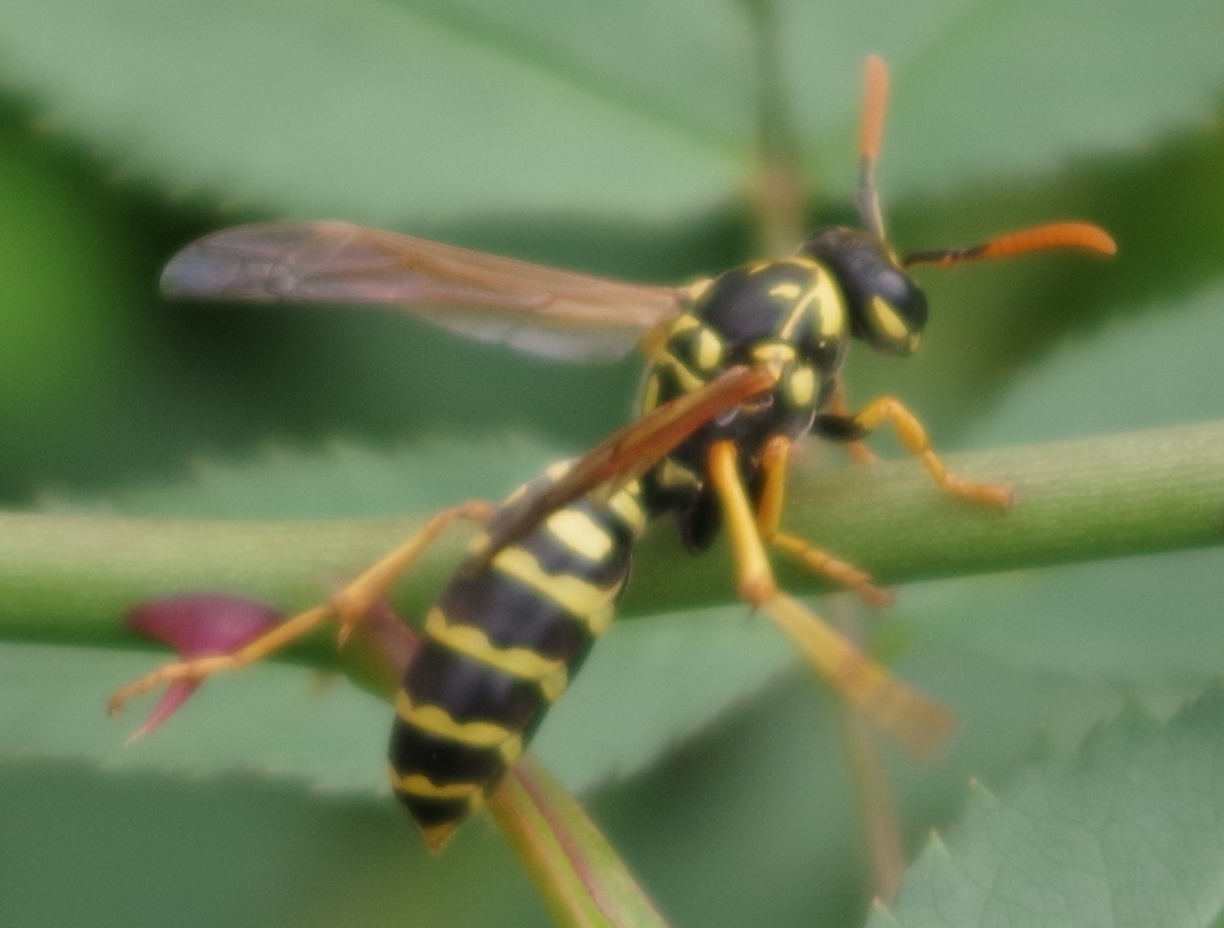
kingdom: Animalia
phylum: Arthropoda
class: Insecta
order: Hymenoptera
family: Eumenidae
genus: Polistes
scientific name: Polistes dominula
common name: Paper wasp
